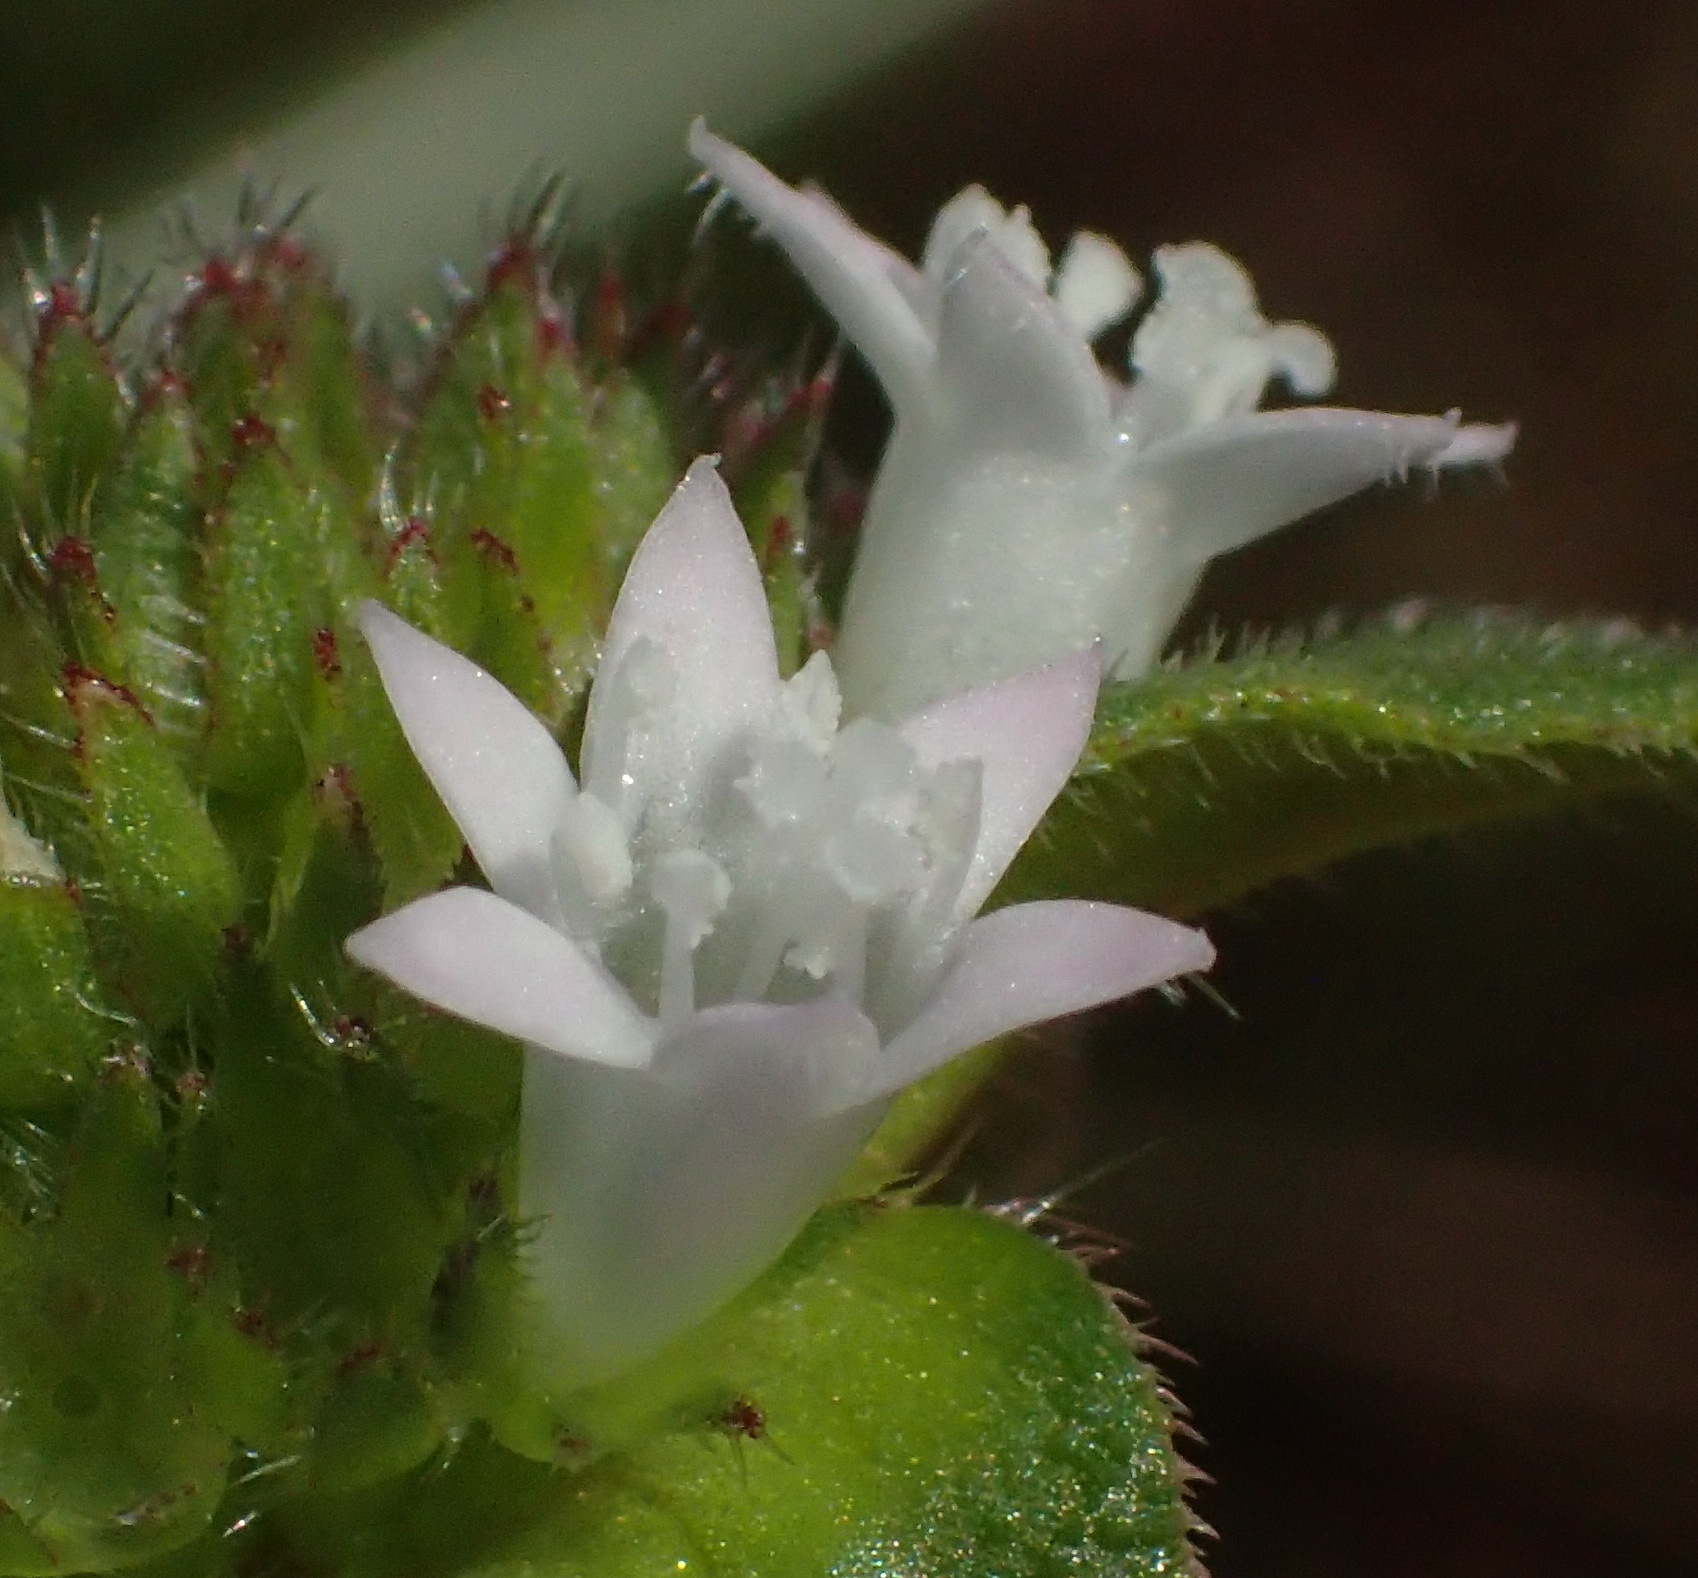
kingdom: Plantae
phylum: Tracheophyta
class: Magnoliopsida
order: Gentianales
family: Rubiaceae
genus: Richardia
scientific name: Richardia brasiliensis
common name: Tropical mexican clover
